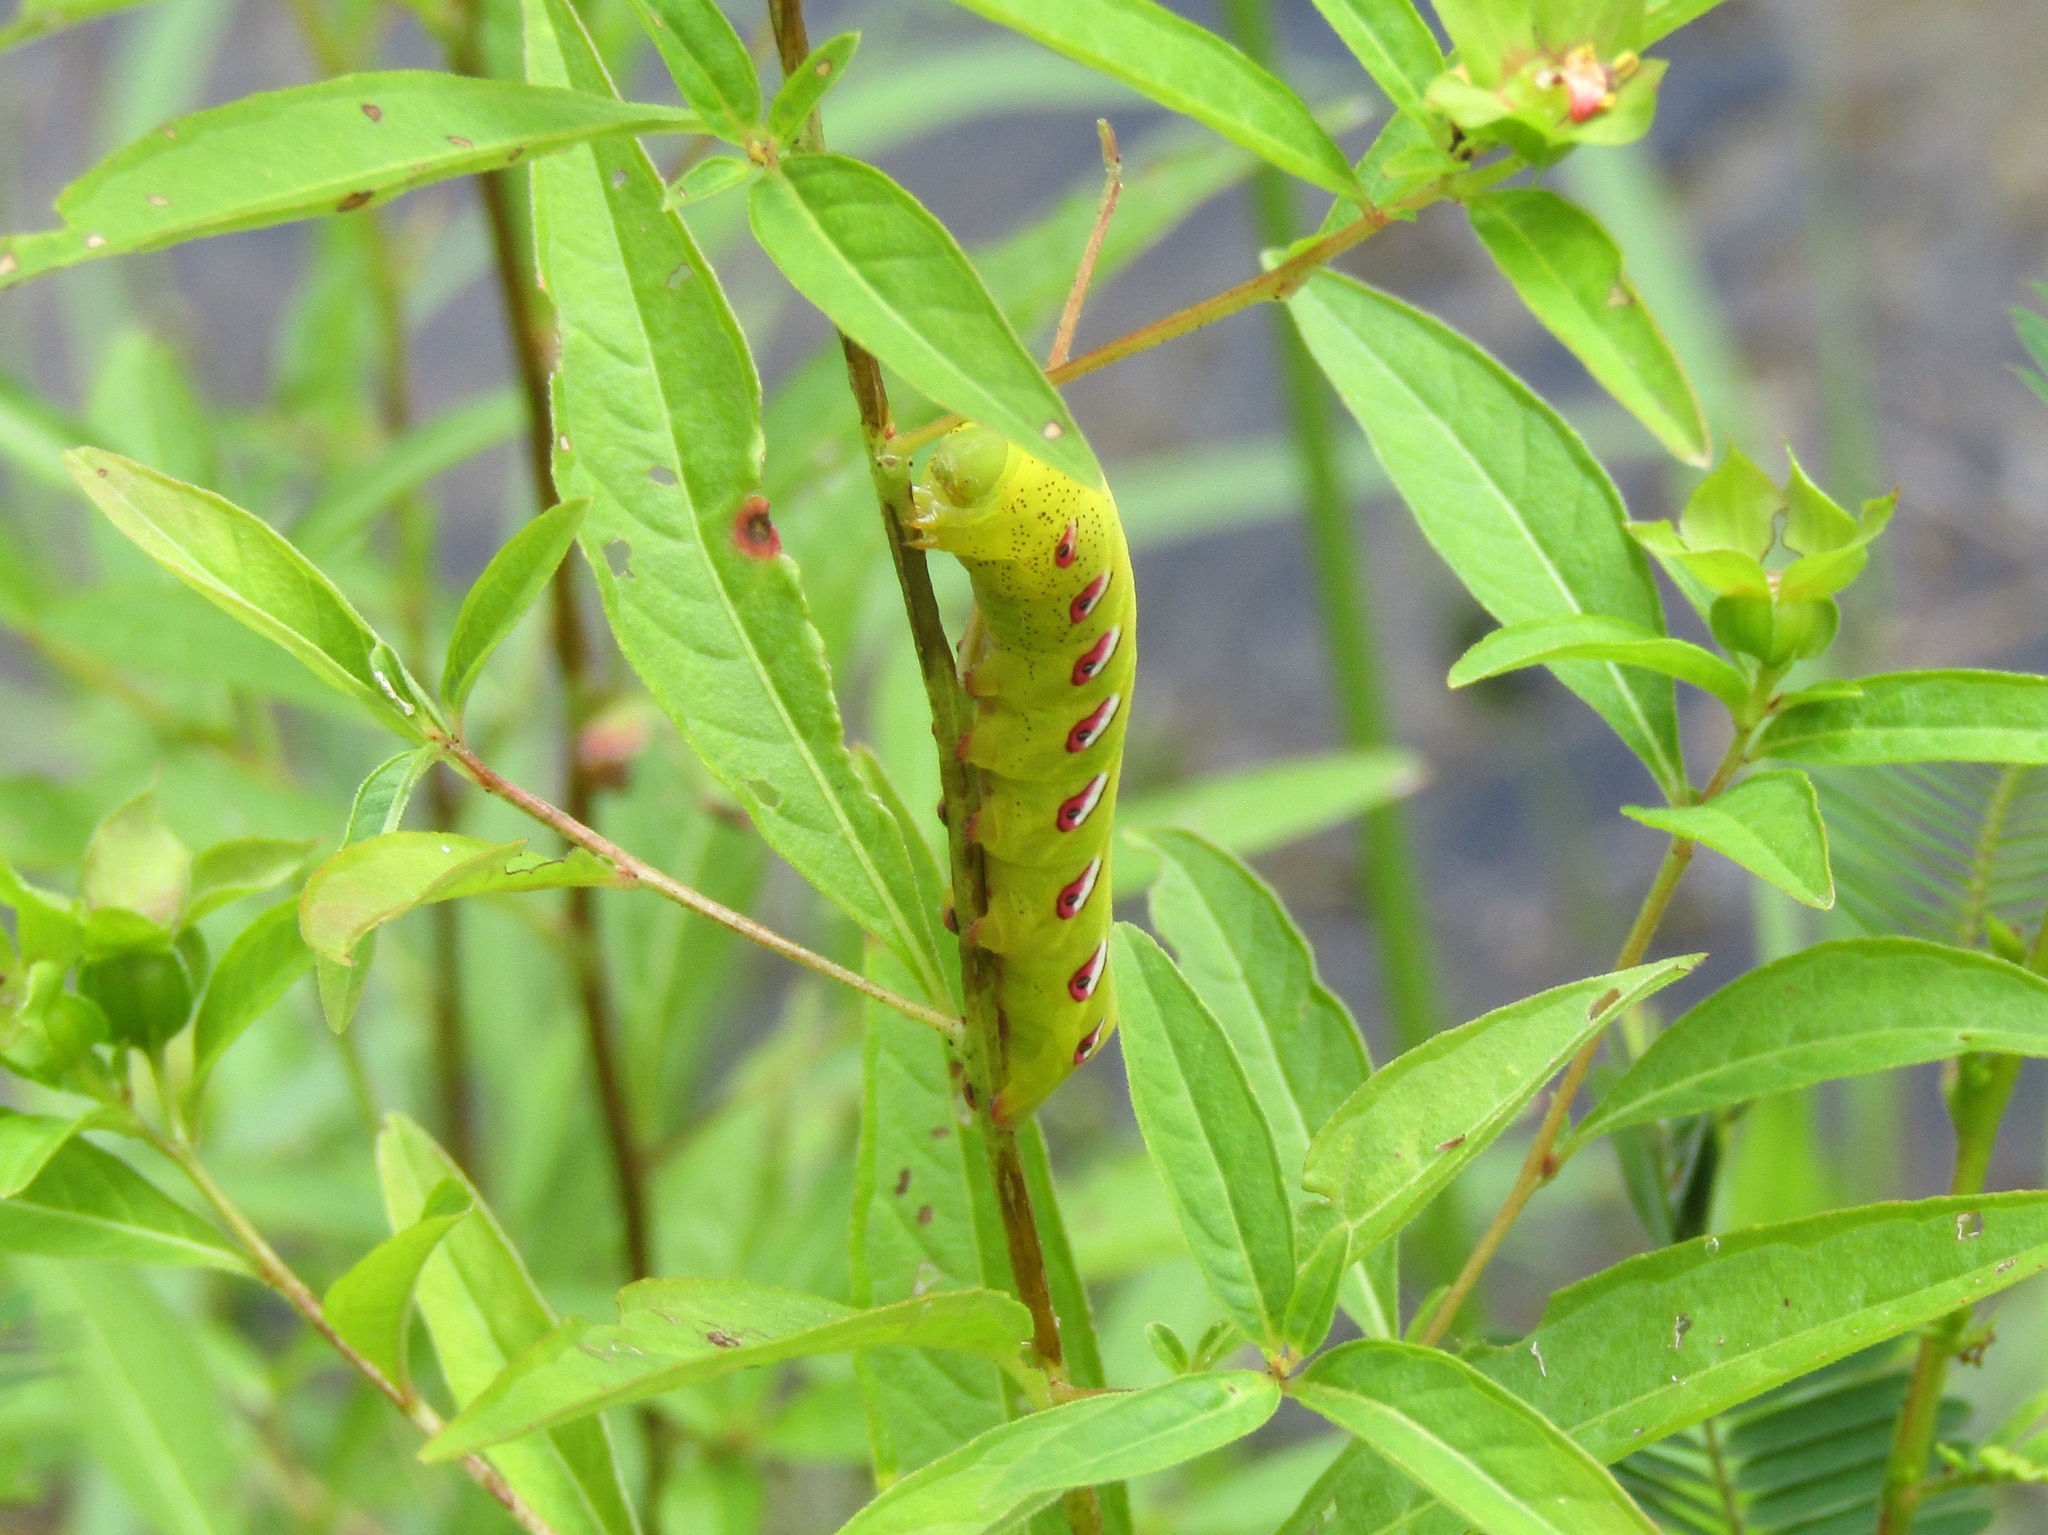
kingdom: Animalia
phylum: Arthropoda
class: Insecta
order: Lepidoptera
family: Sphingidae
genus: Eumorpha
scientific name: Eumorpha fasciatus
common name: Banded sphinx
